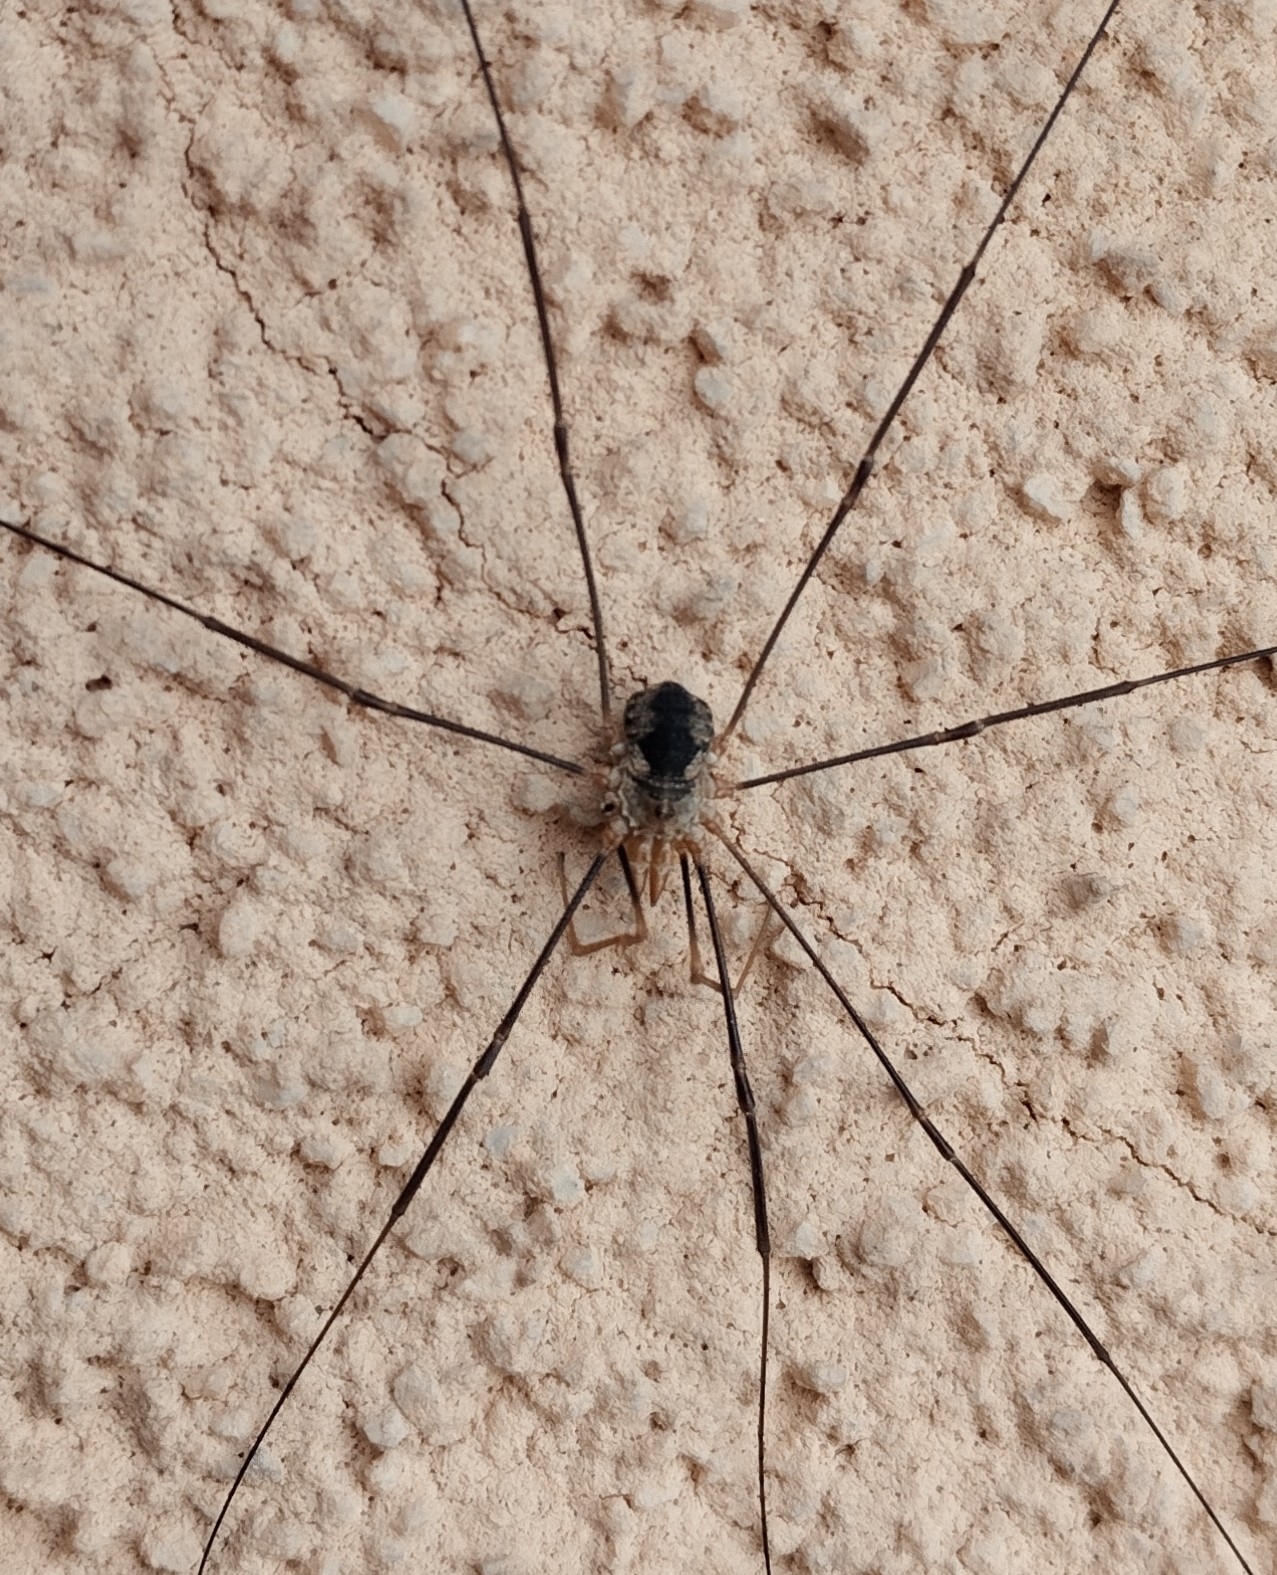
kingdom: Animalia
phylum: Arthropoda
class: Arachnida
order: Opiliones
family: Phalangiidae
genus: Phalangium
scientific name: Phalangium opilio
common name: Daddy longleg
